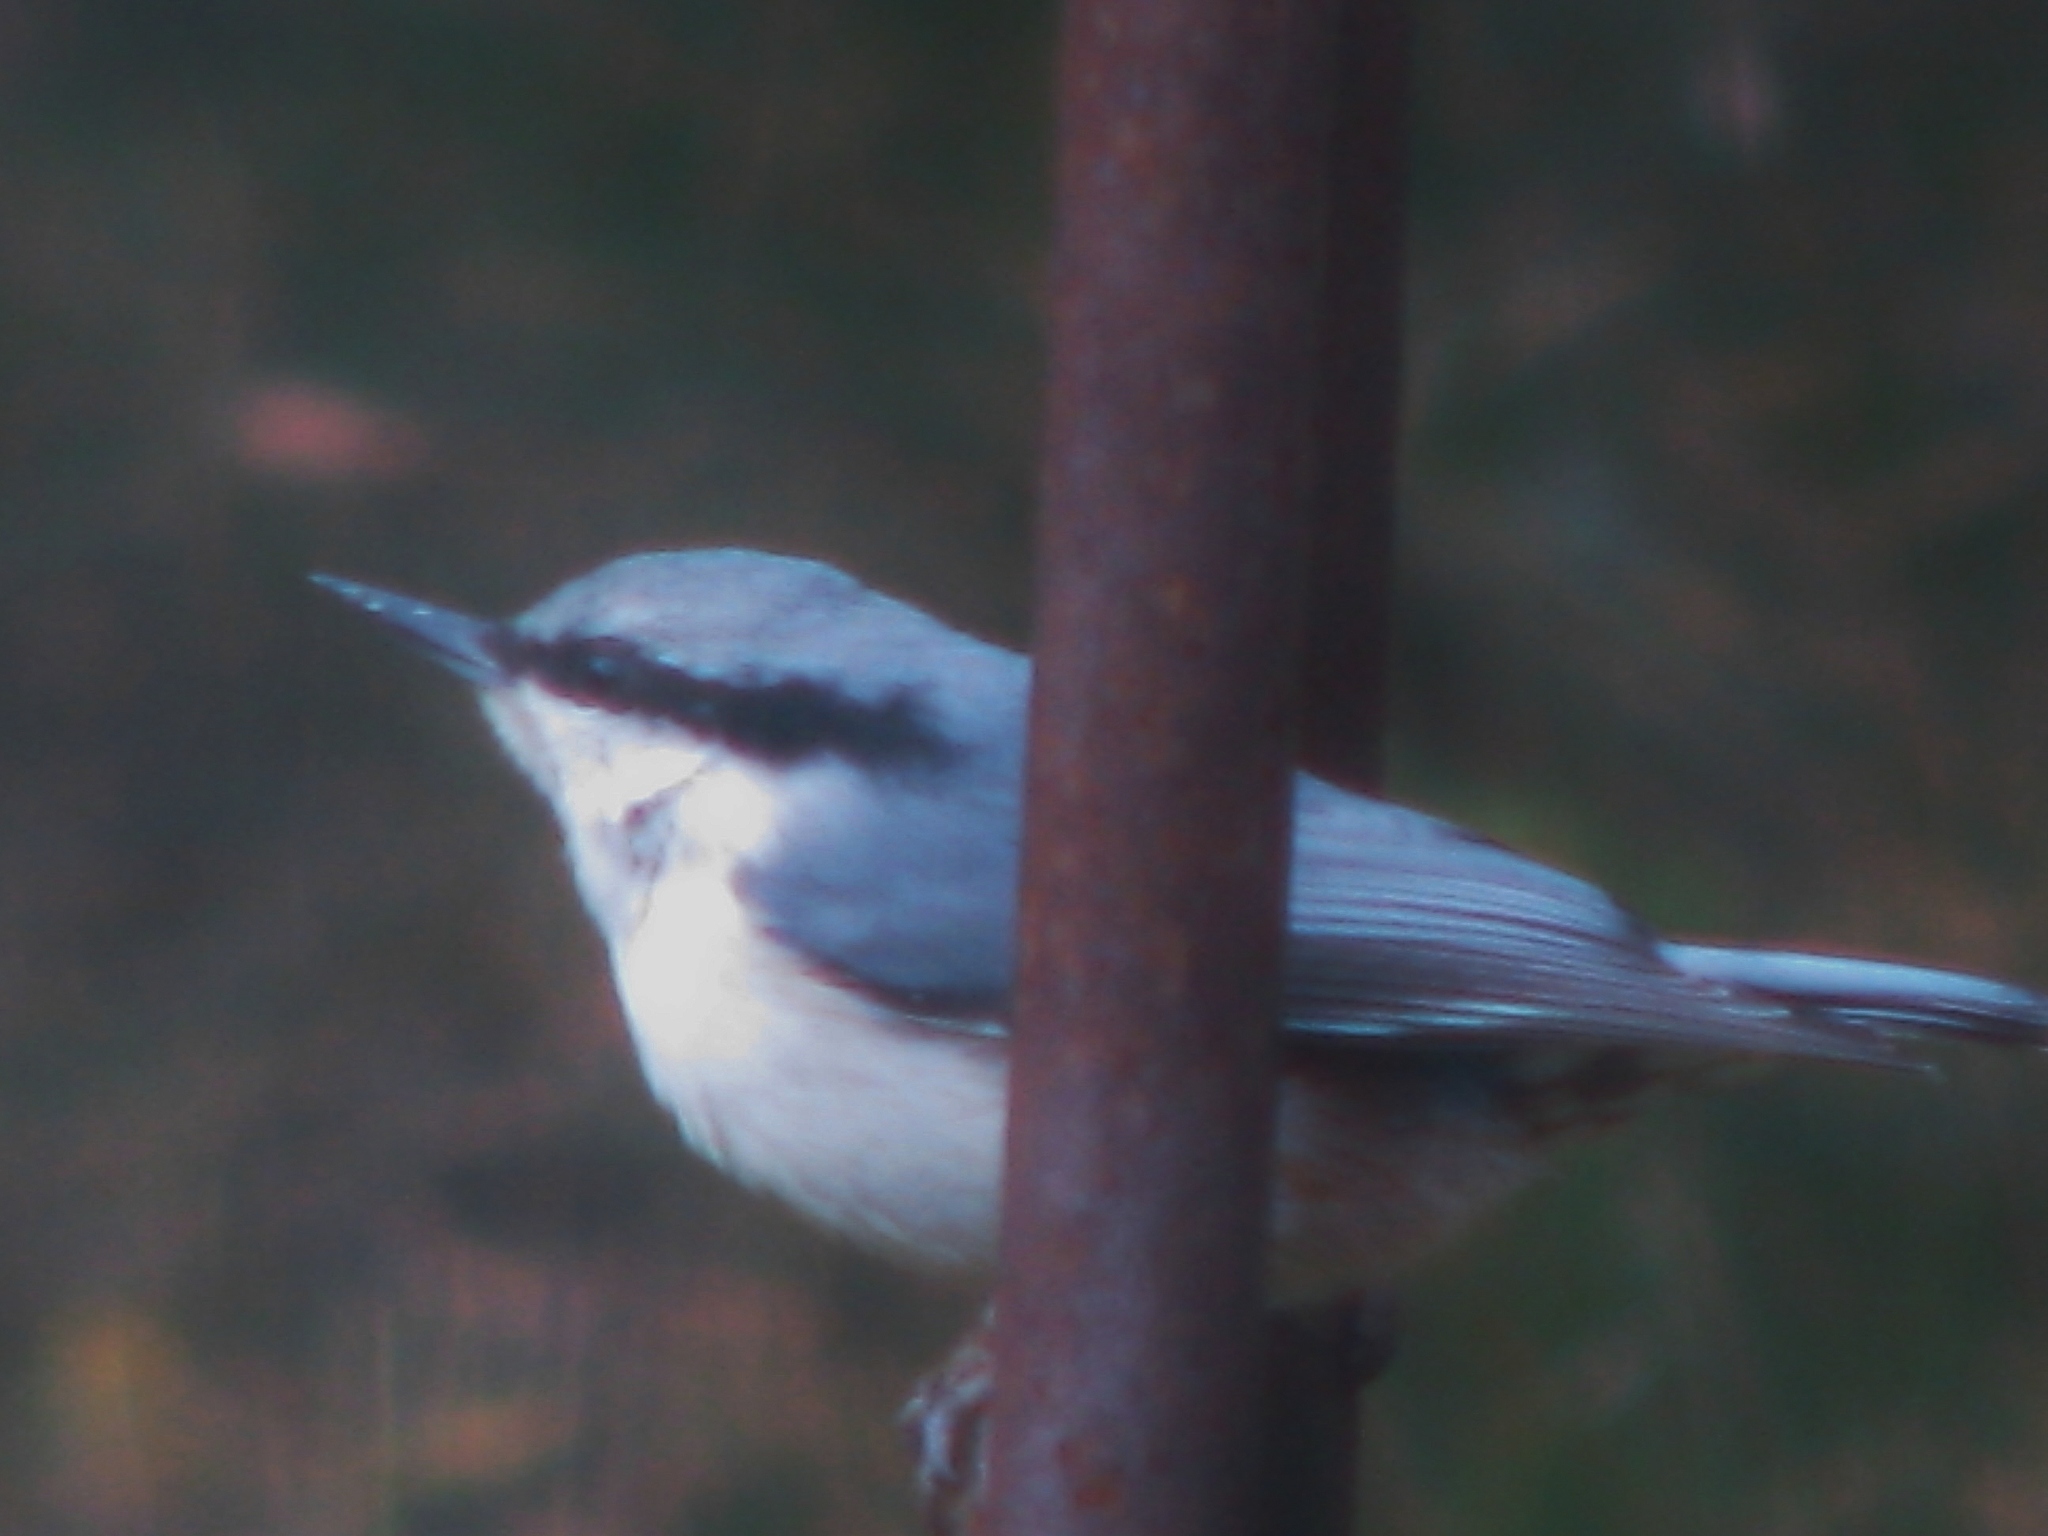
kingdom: Animalia
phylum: Chordata
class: Aves
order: Passeriformes
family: Sittidae
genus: Sitta
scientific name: Sitta europaea
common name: Eurasian nuthatch
